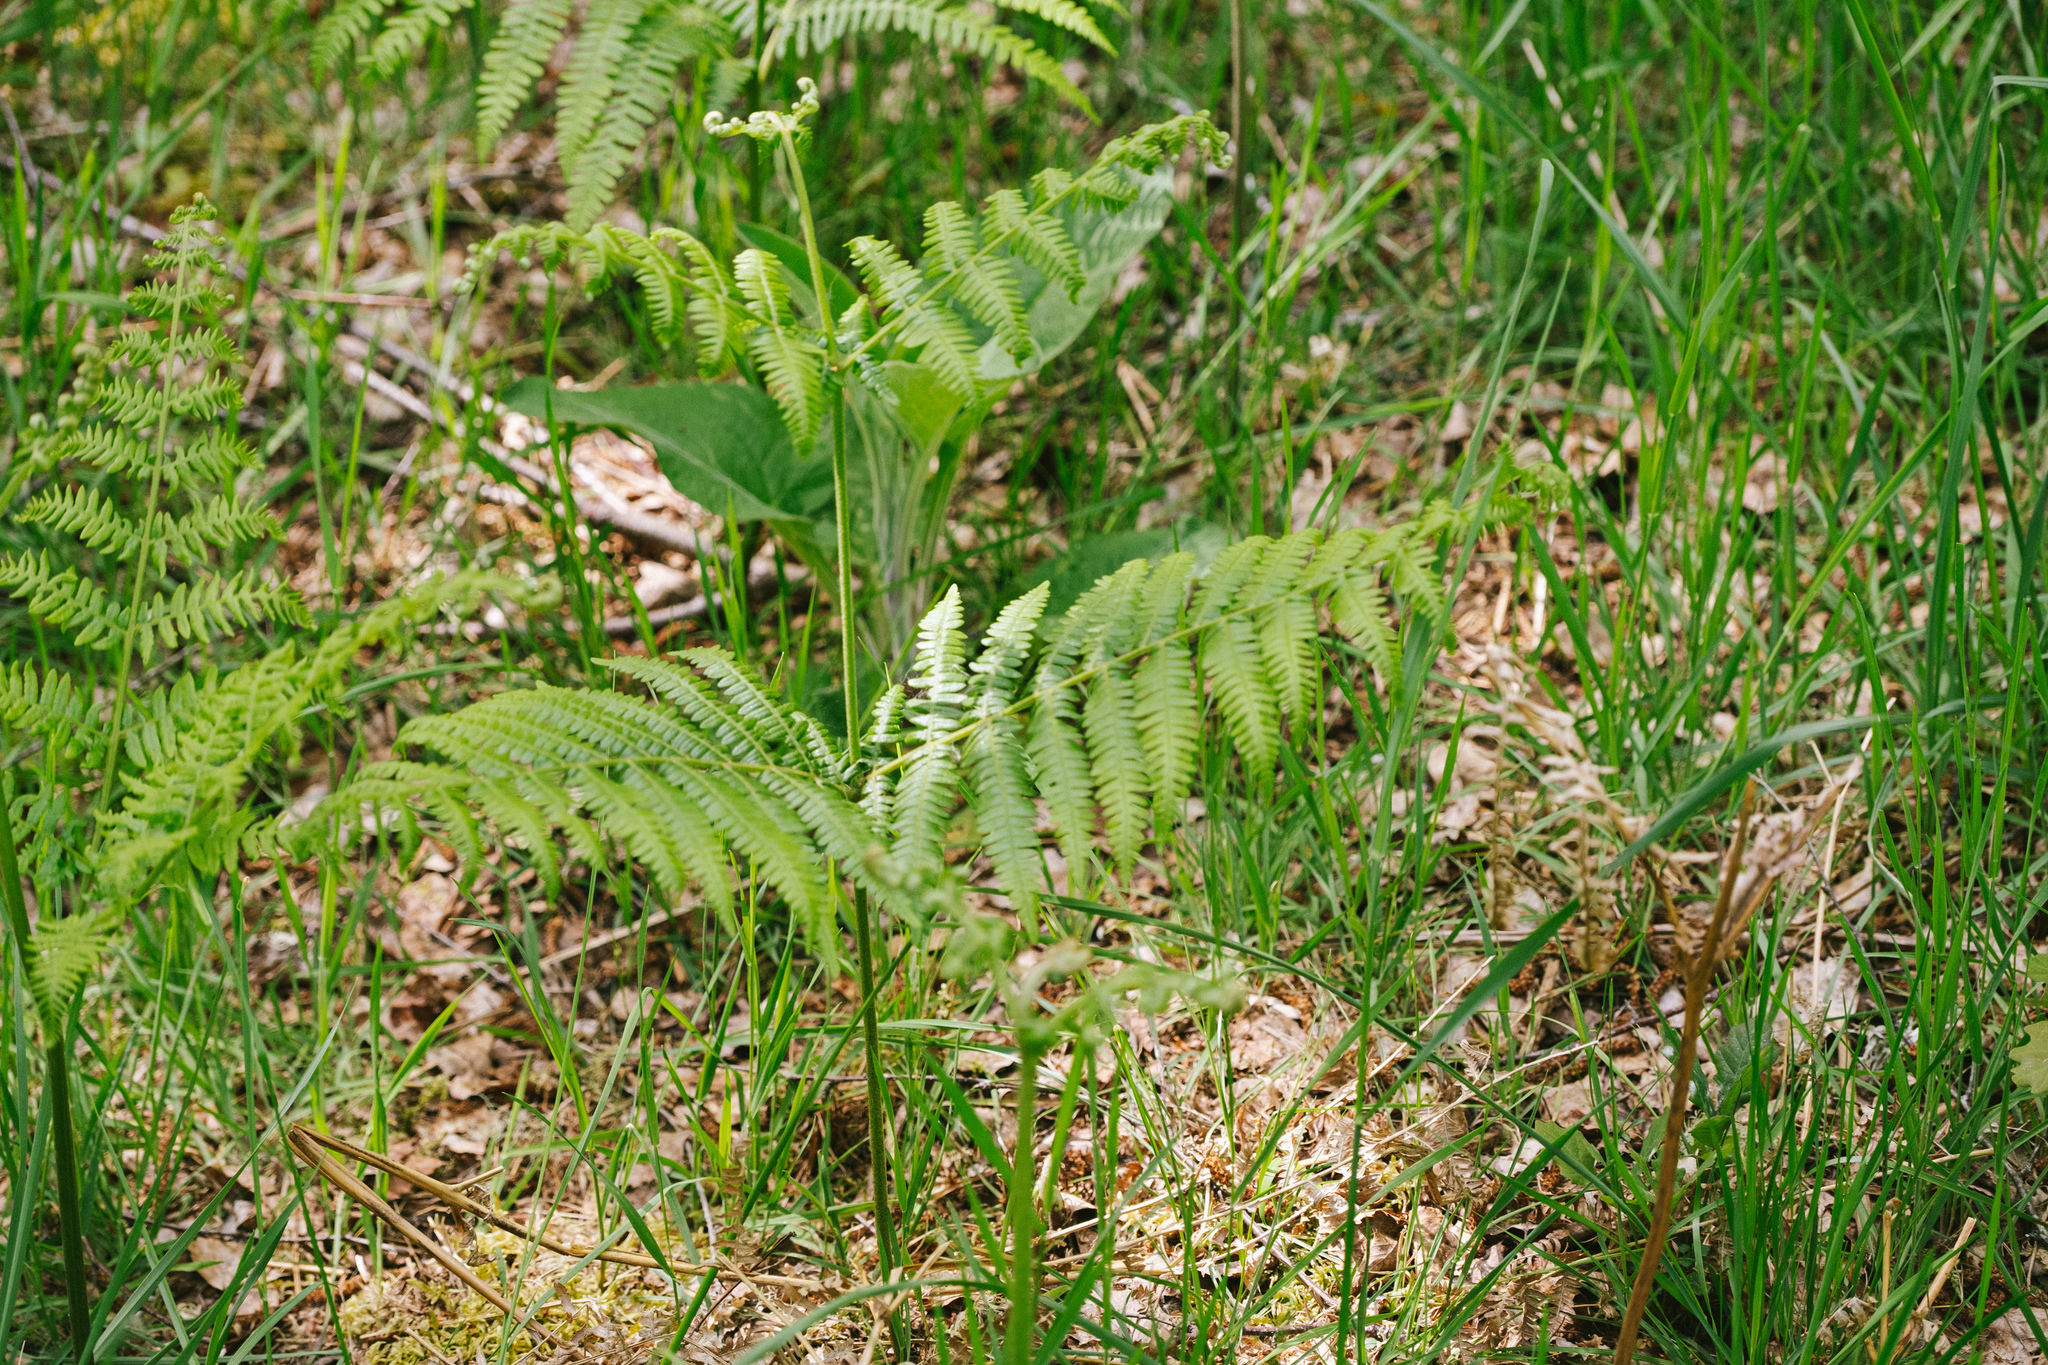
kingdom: Plantae
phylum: Tracheophyta
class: Polypodiopsida
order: Polypodiales
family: Dennstaedtiaceae
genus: Pteridium
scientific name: Pteridium aquilinum
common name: Bracken
